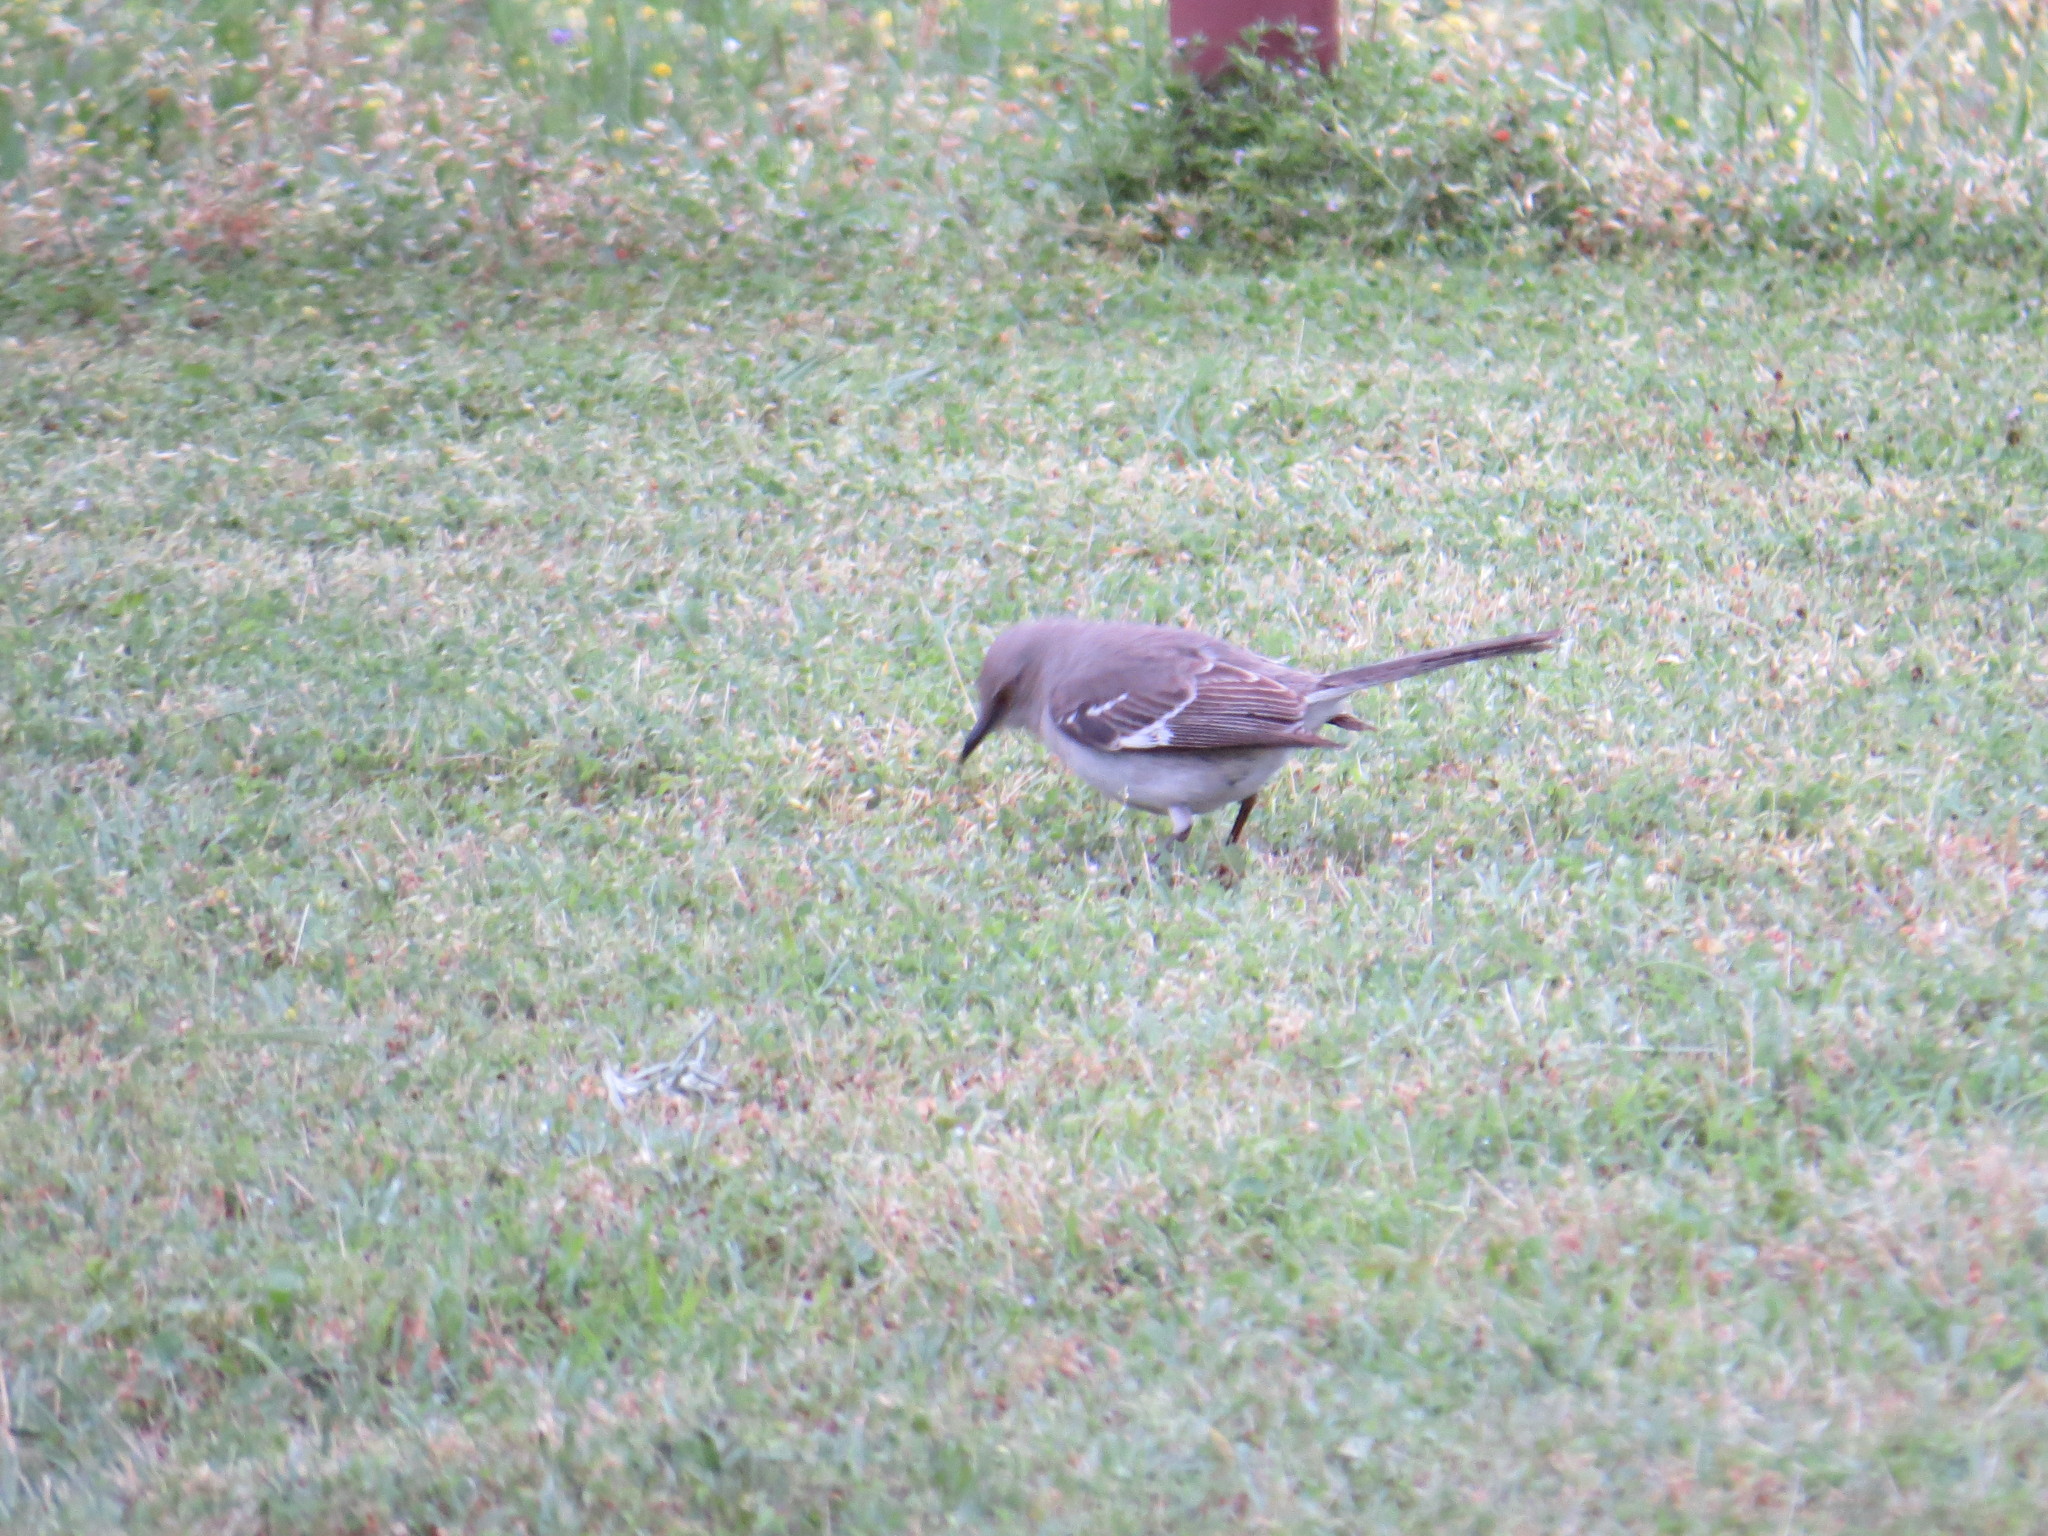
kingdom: Animalia
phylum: Chordata
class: Aves
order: Passeriformes
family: Mimidae
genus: Mimus
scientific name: Mimus polyglottos
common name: Northern mockingbird
